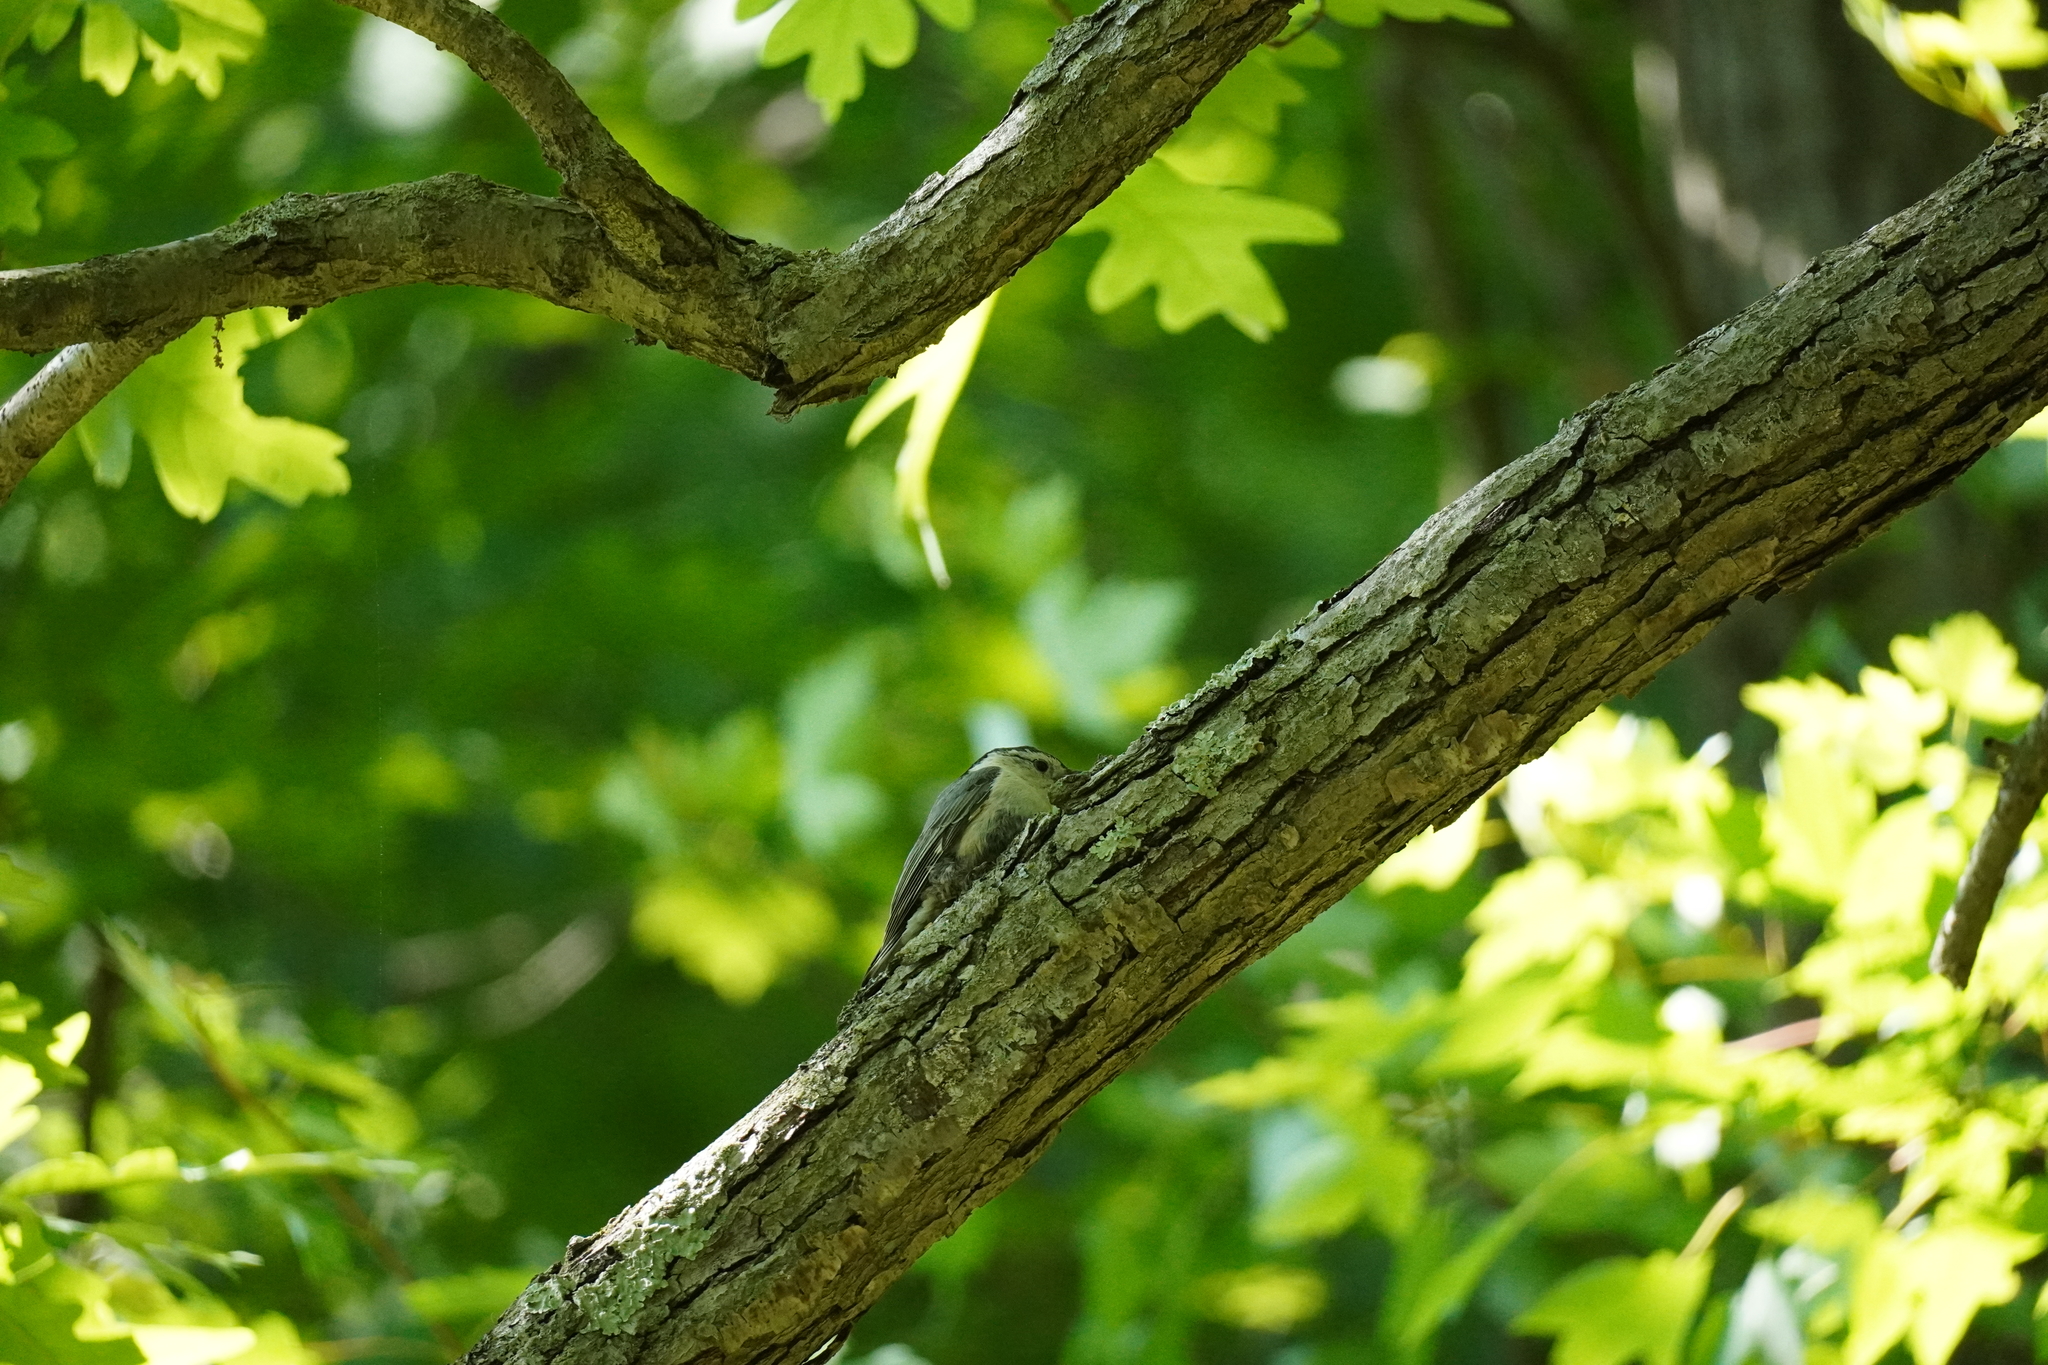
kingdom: Animalia
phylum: Chordata
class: Aves
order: Passeriformes
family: Sittidae
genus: Sitta
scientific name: Sitta carolinensis
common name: White-breasted nuthatch
